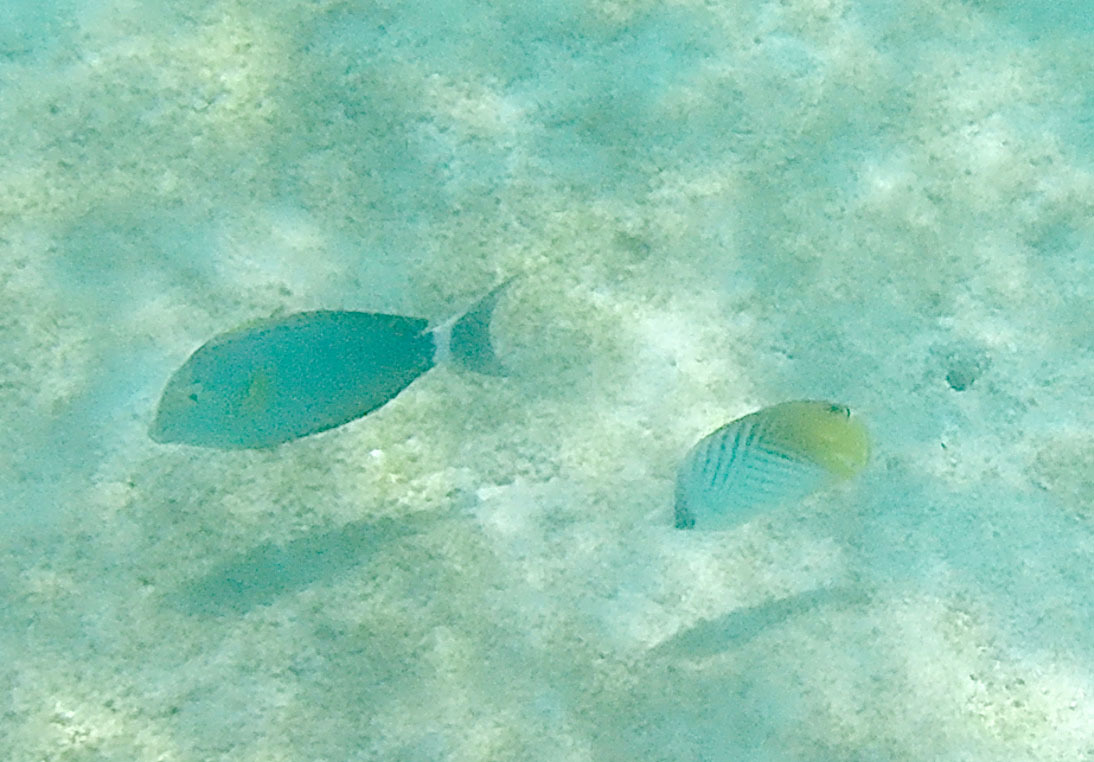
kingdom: Animalia
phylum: Chordata
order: Perciformes
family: Chaetodontidae
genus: Chaetodon
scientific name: Chaetodon auriga
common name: Threadfin butterflyfish
